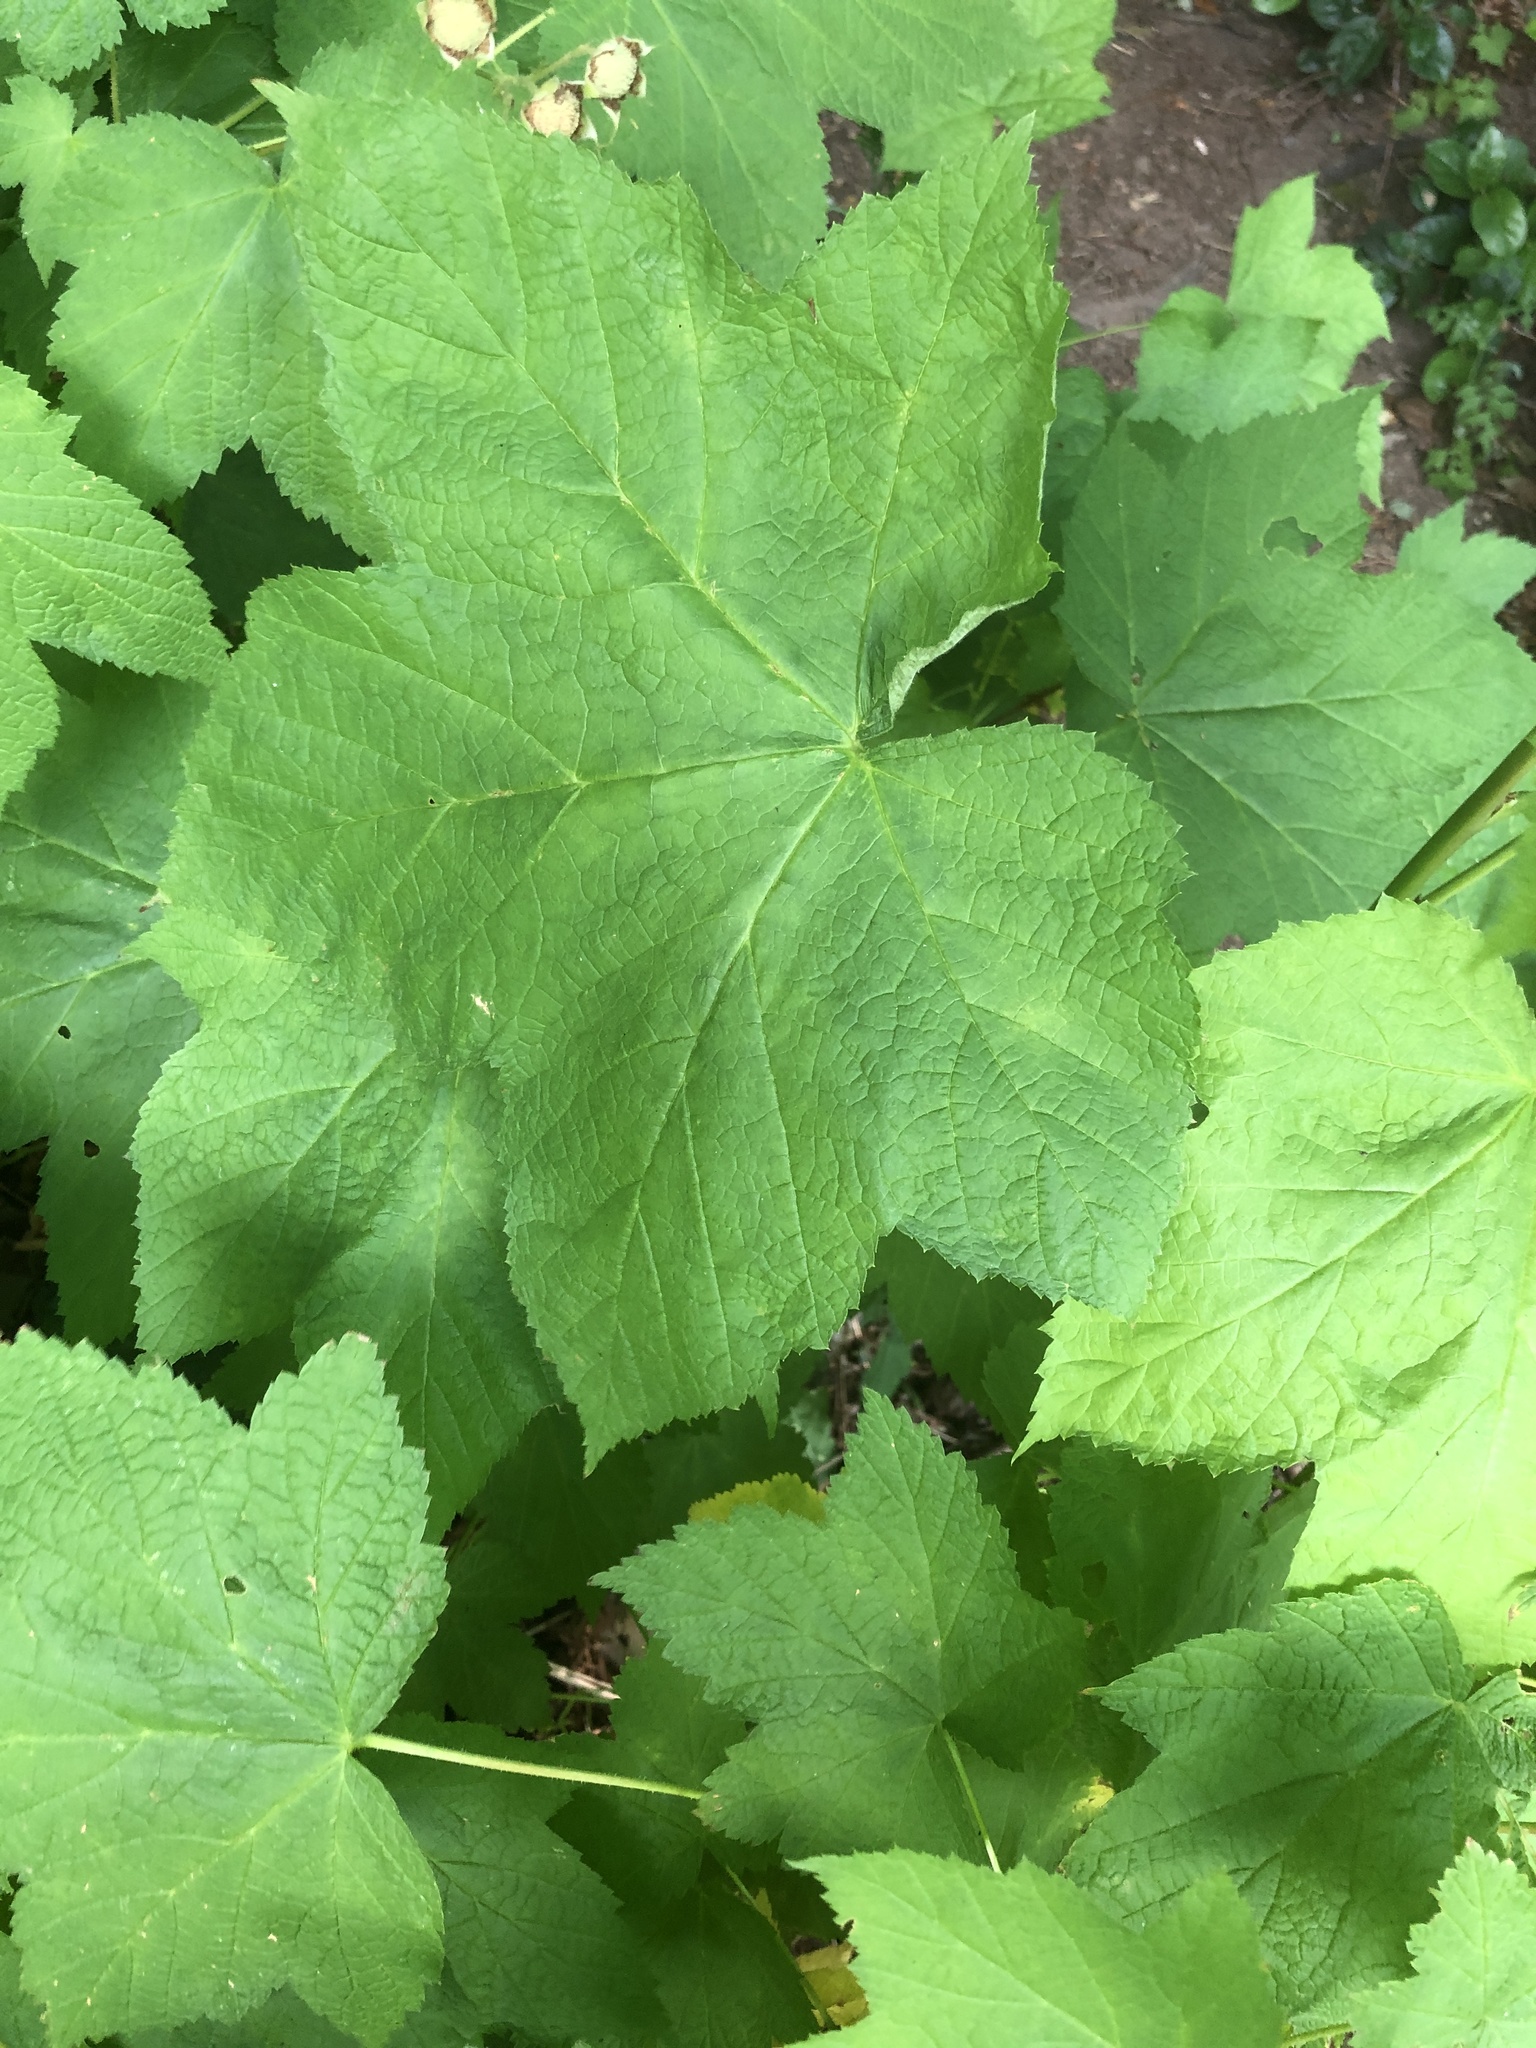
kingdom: Plantae
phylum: Tracheophyta
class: Magnoliopsida
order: Rosales
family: Rosaceae
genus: Rubus
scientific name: Rubus parviflorus
